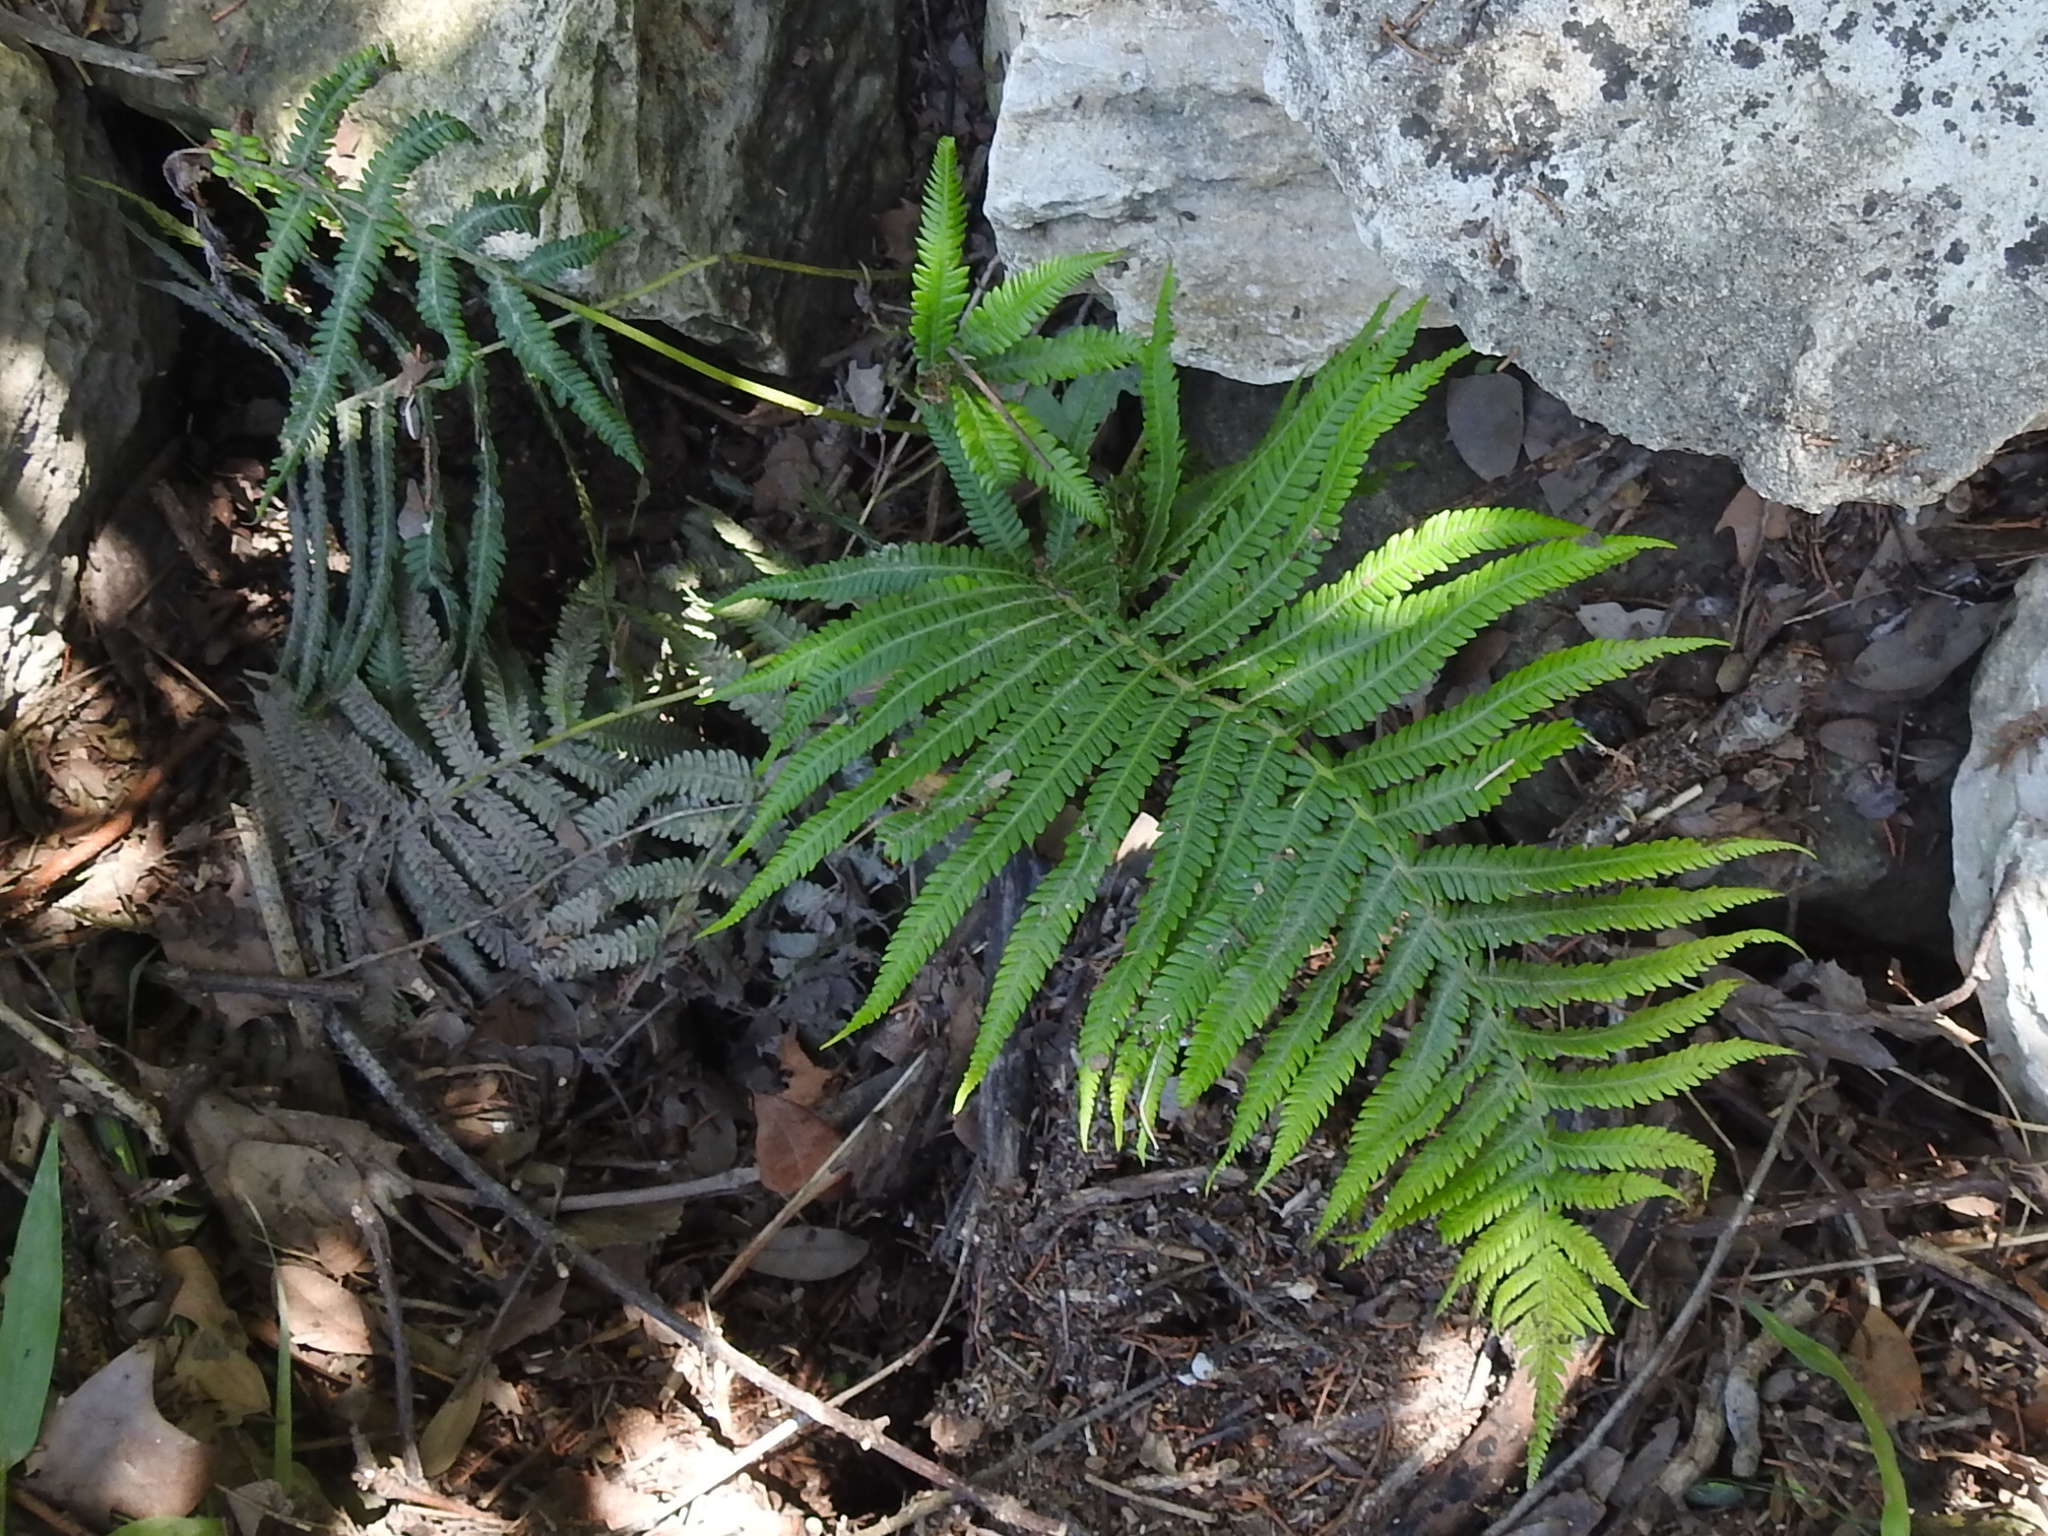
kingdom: Plantae
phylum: Tracheophyta
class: Polypodiopsida
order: Polypodiales
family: Thelypteridaceae
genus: Pelazoneuron
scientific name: Pelazoneuron ovatum
